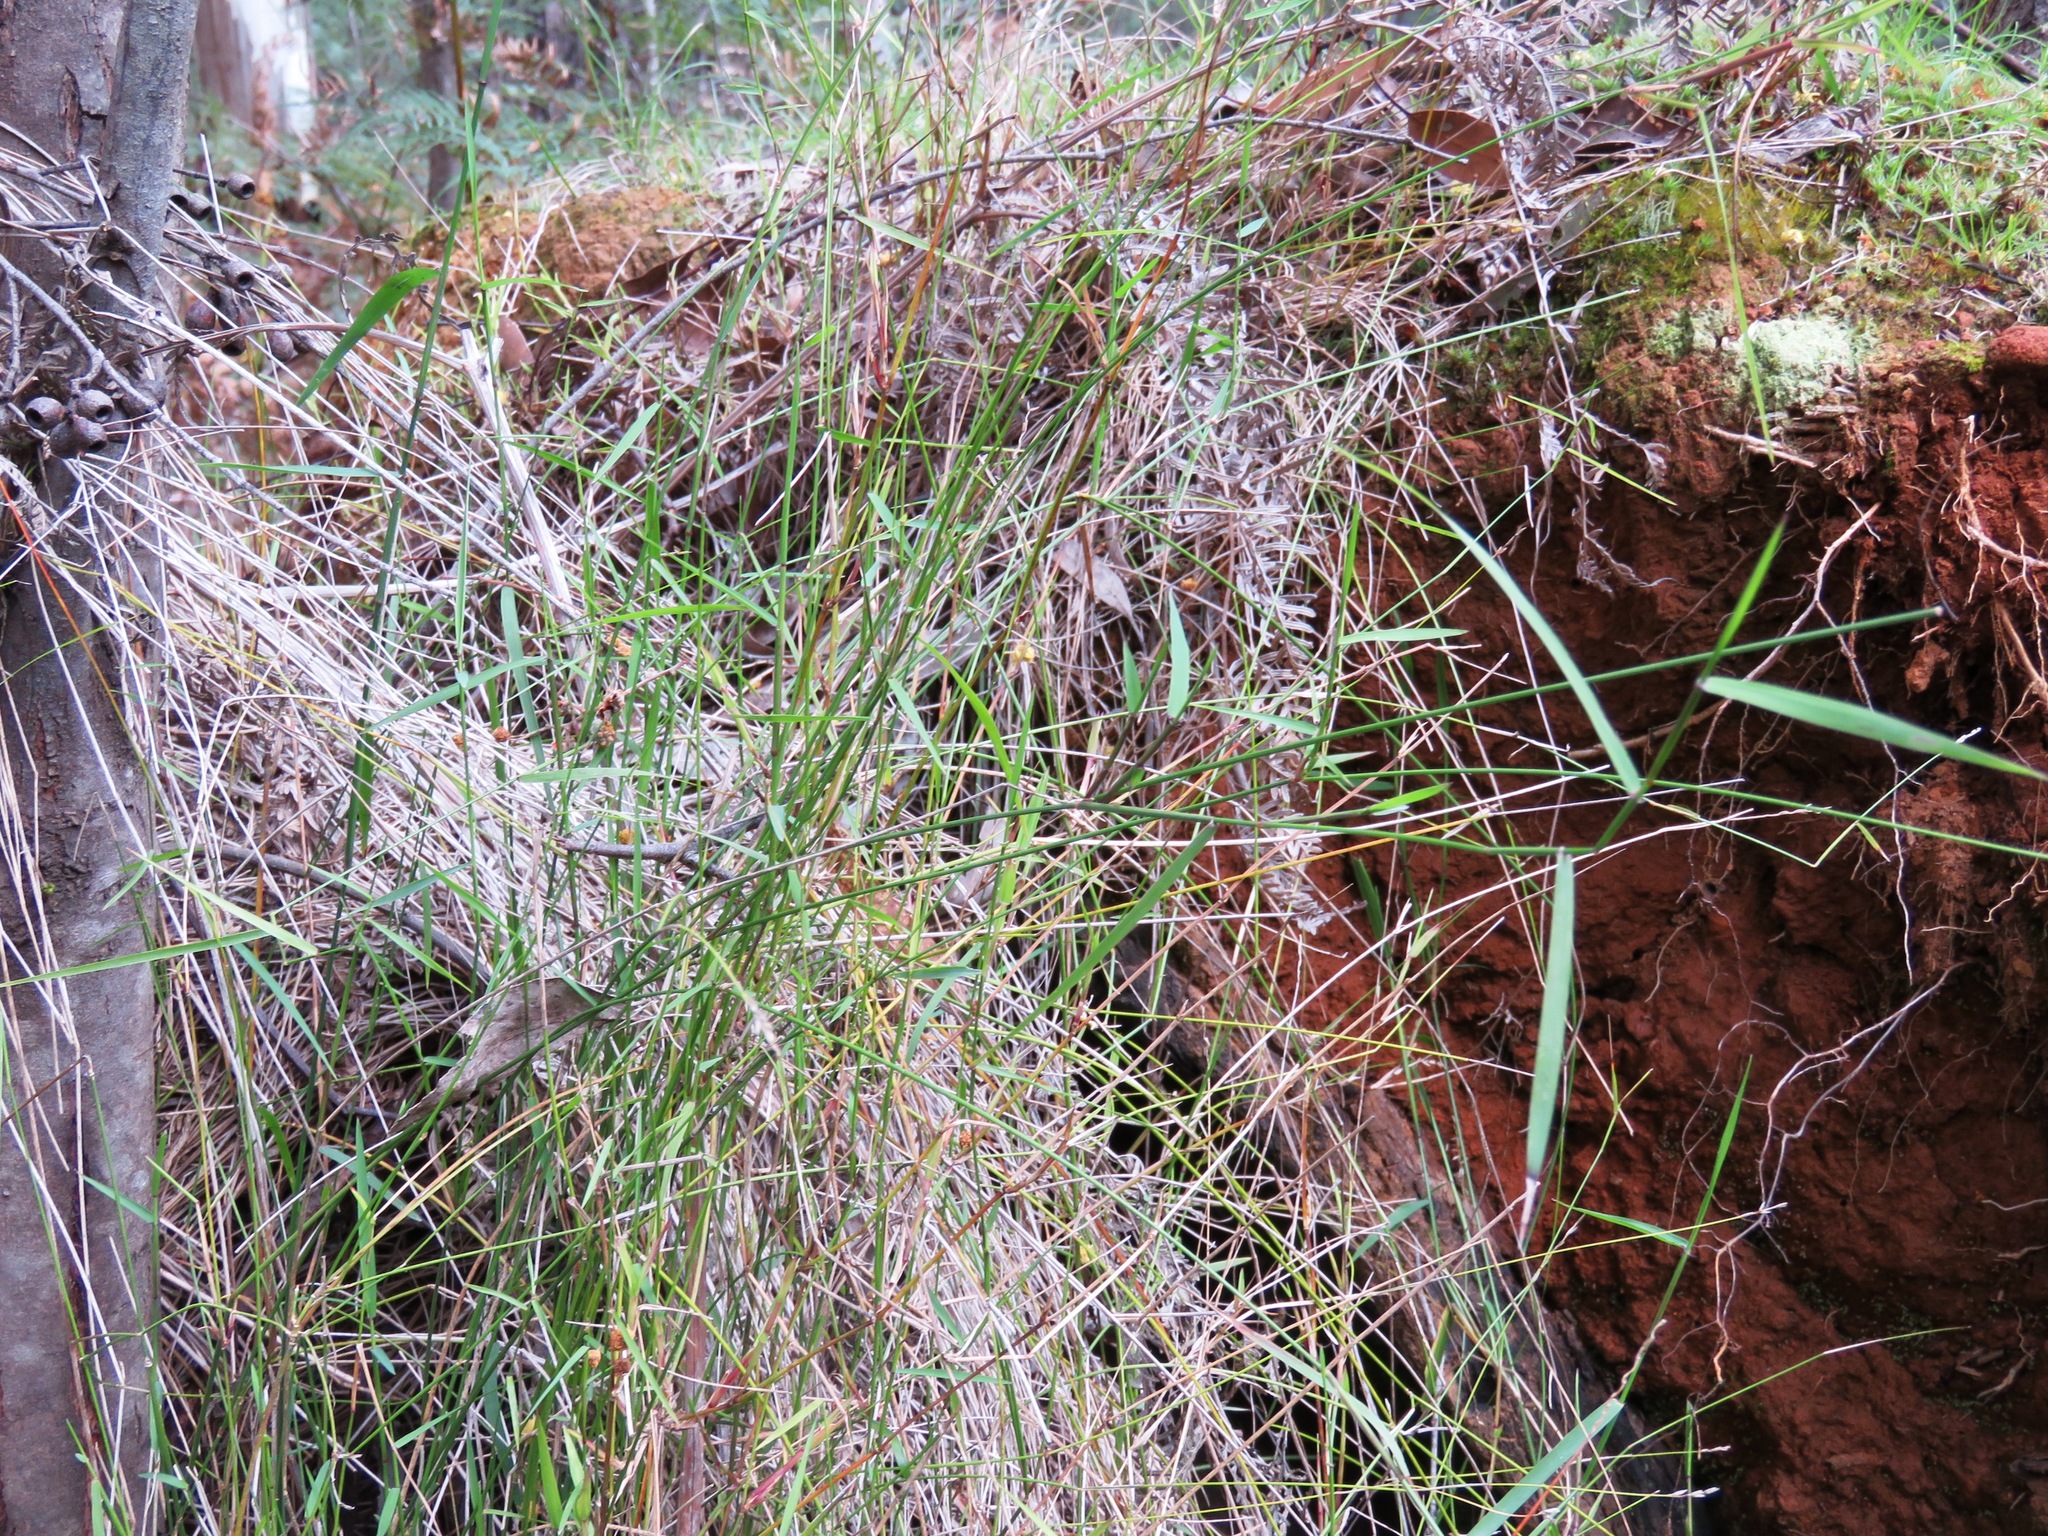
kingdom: Plantae
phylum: Tracheophyta
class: Liliopsida
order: Poales
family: Poaceae
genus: Tetrarrhena
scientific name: Tetrarrhena juncea
